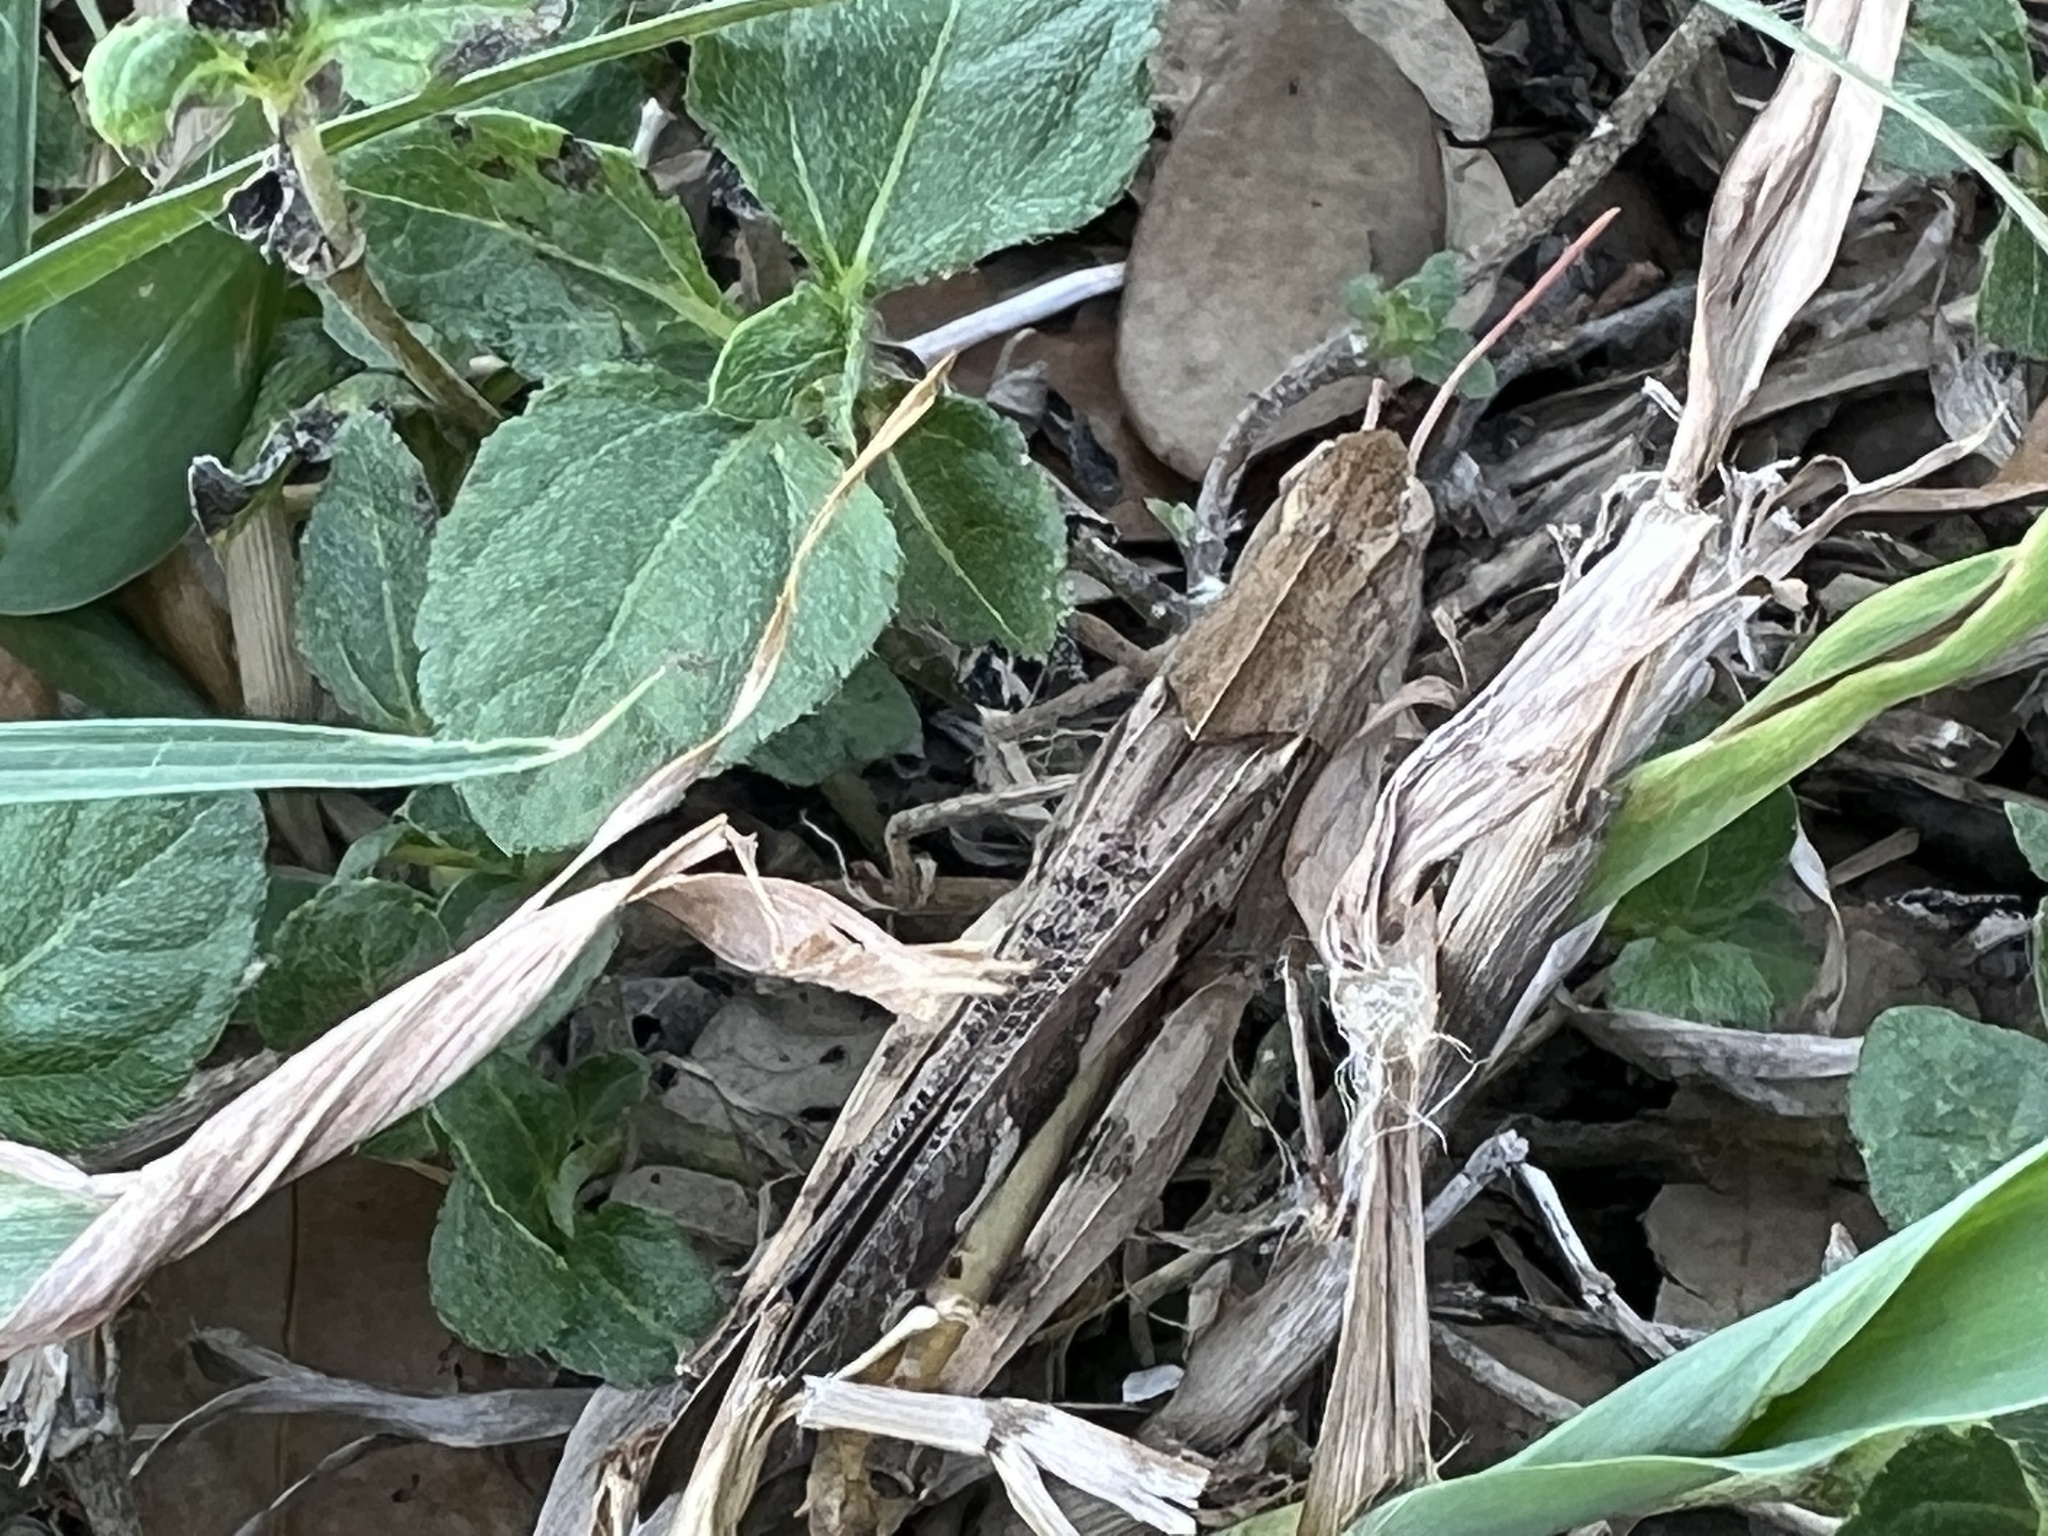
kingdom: Animalia
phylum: Arthropoda
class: Insecta
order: Orthoptera
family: Acrididae
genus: Hippiscus
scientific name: Hippiscus ocelote
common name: Wrinkled grasshopper
